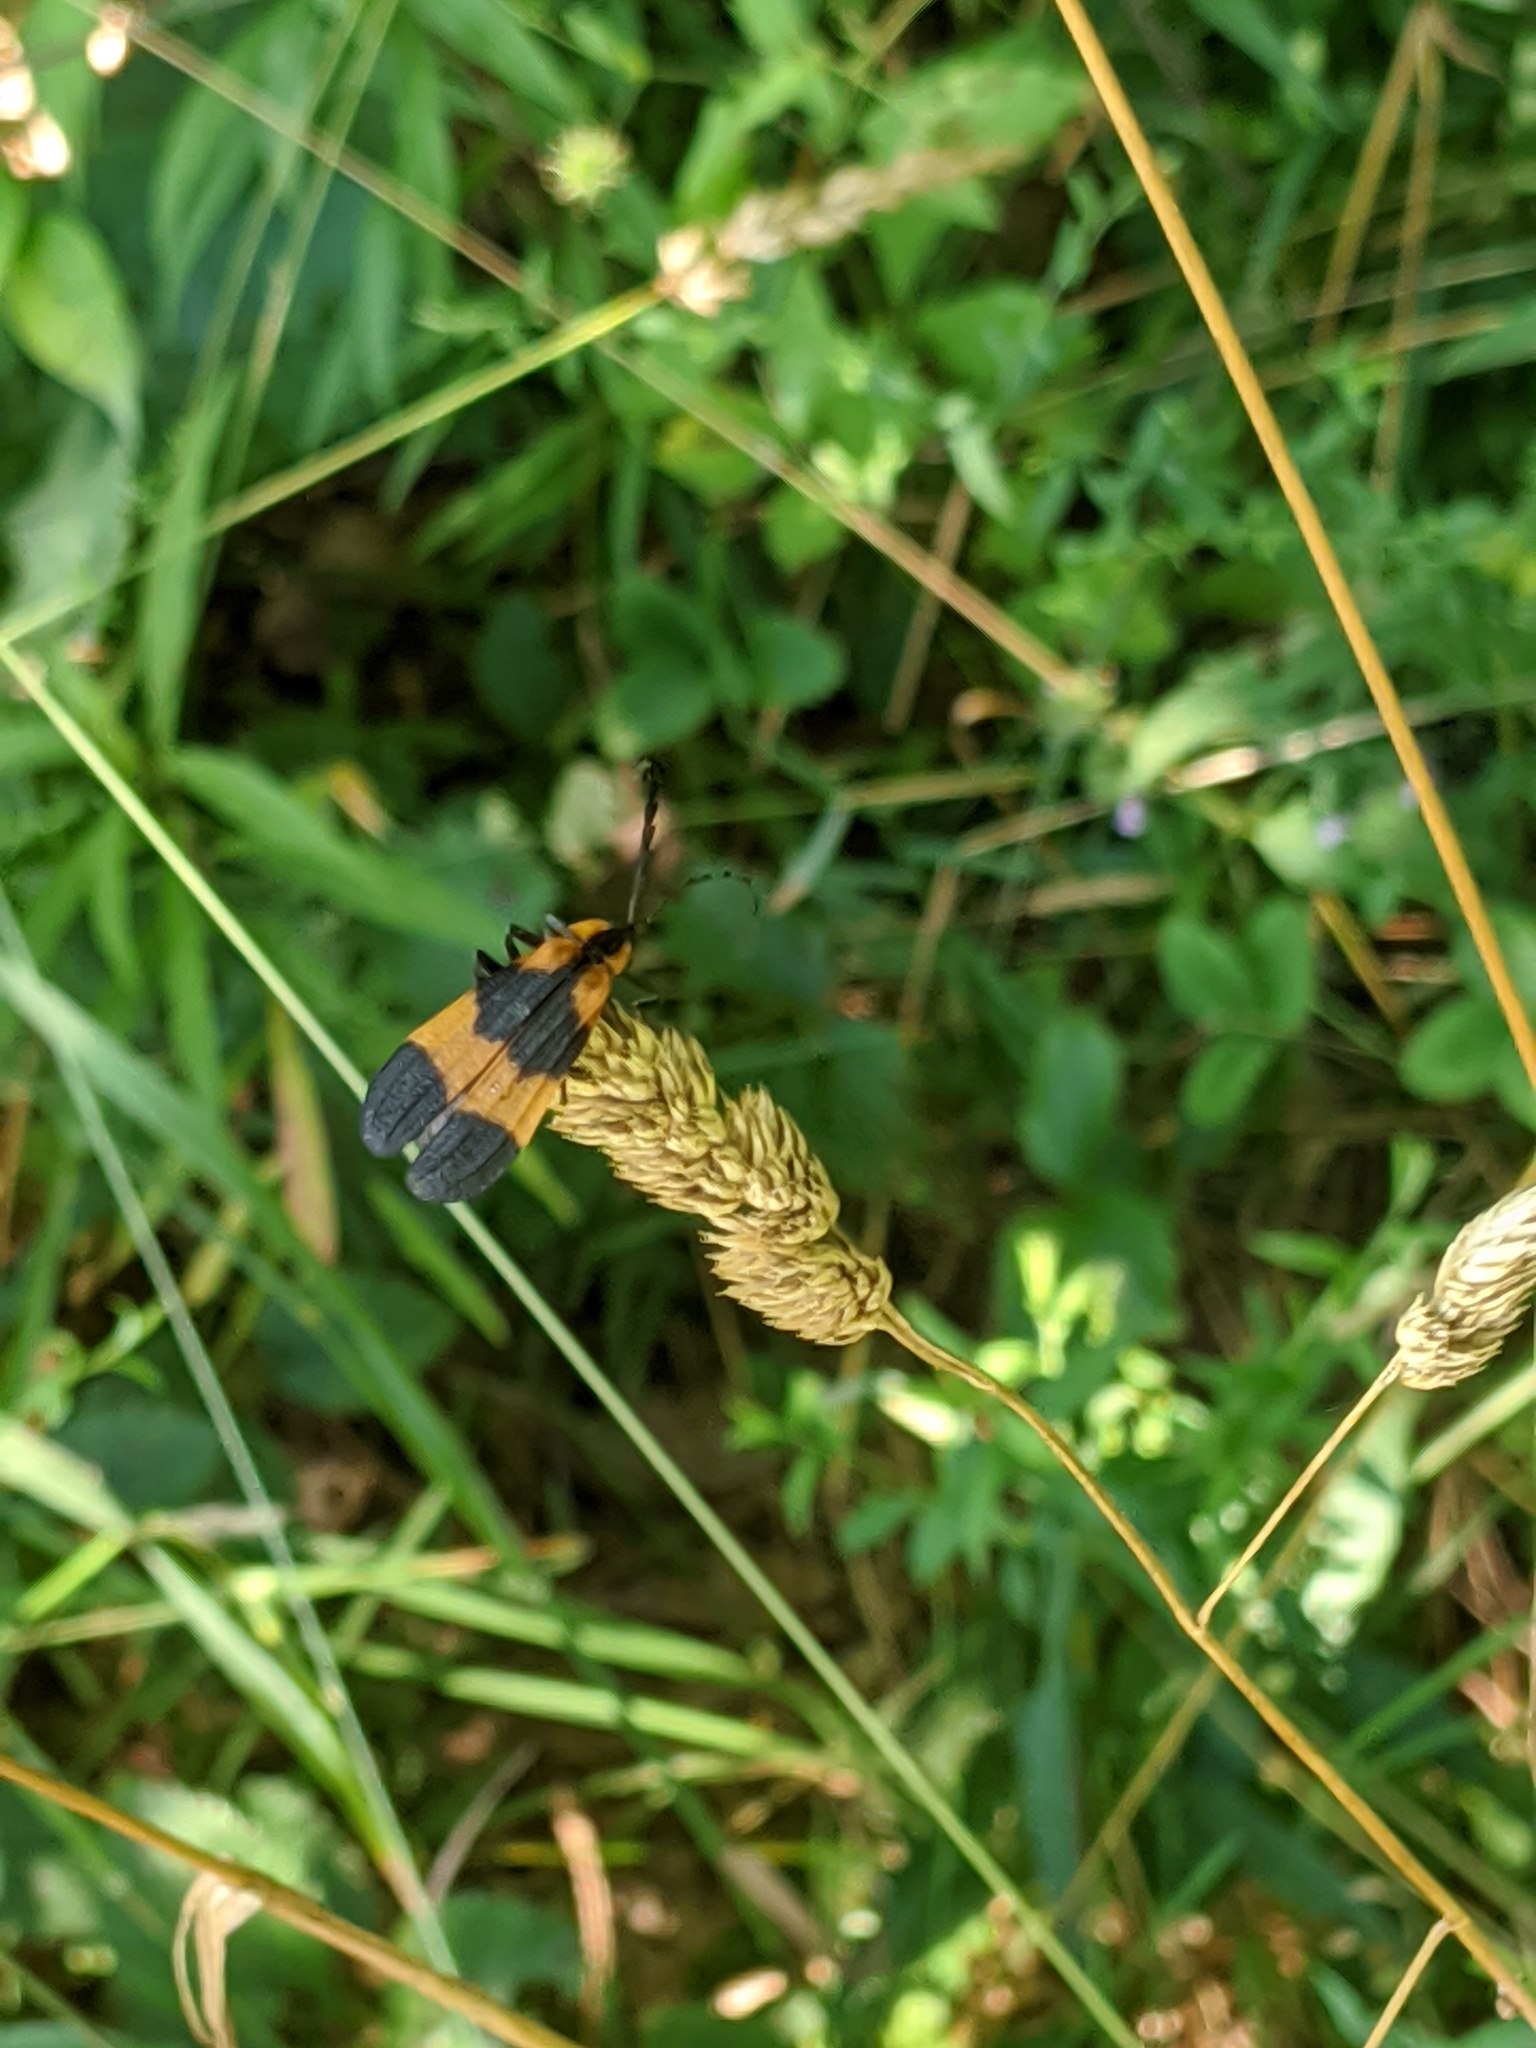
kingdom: Animalia
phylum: Arthropoda
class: Insecta
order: Coleoptera
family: Lycidae
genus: Calopteron
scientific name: Calopteron reticulatum
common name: Banded net-winged beetle
